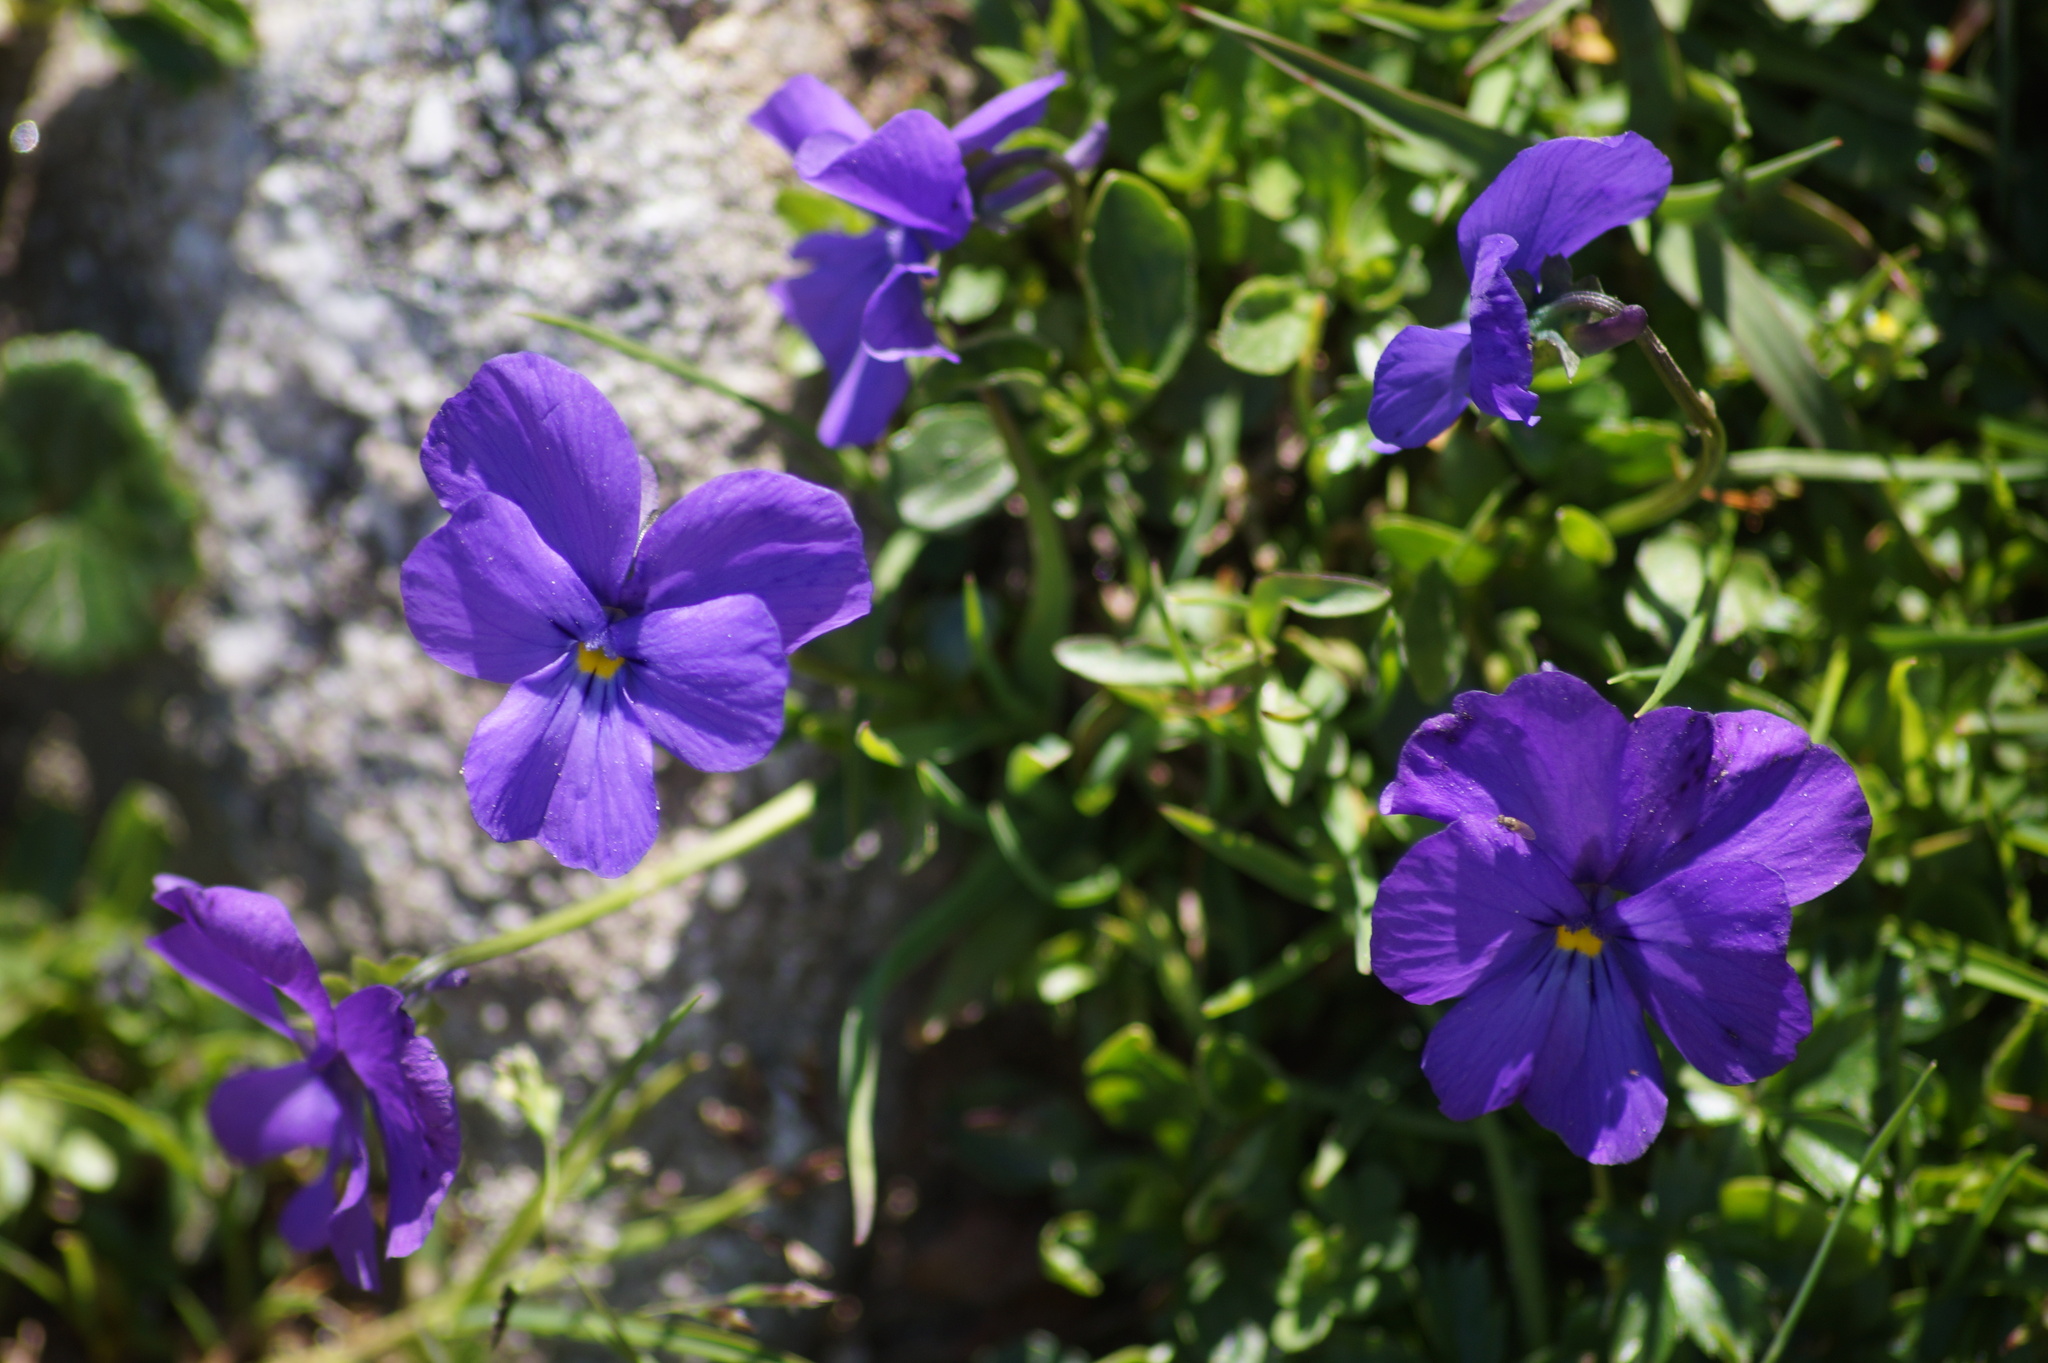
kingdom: Plantae
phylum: Tracheophyta
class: Magnoliopsida
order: Malpighiales
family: Violaceae
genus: Viola
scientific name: Viola calcarata
